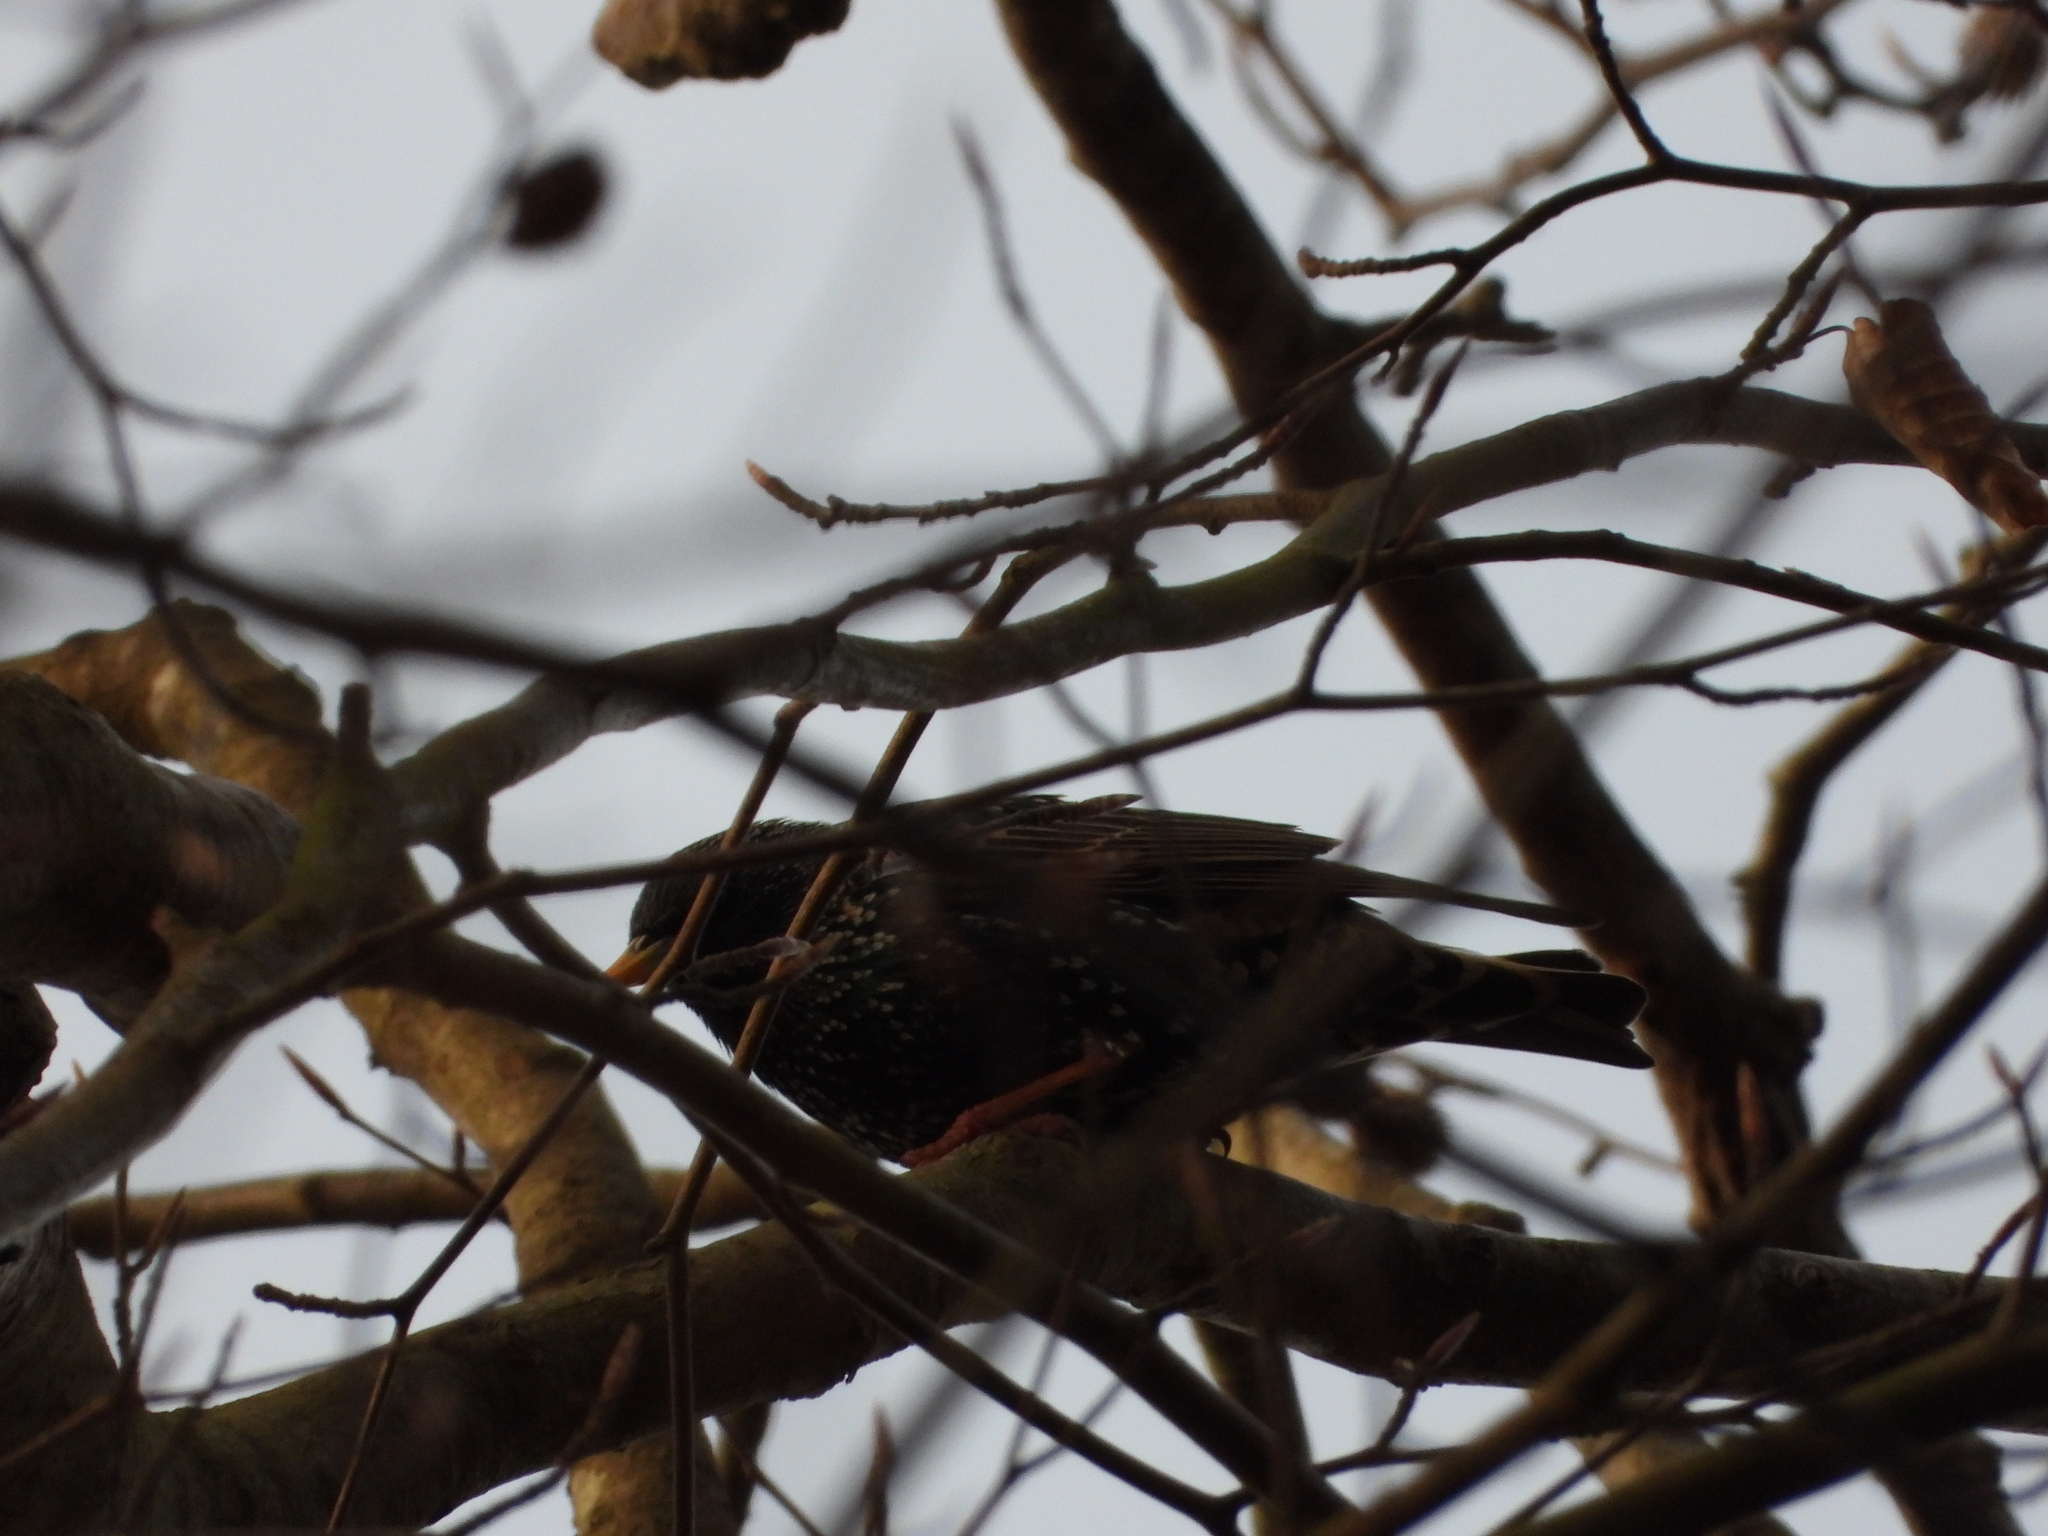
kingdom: Animalia
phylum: Chordata
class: Aves
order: Passeriformes
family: Sturnidae
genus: Sturnus
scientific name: Sturnus vulgaris
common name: Common starling
